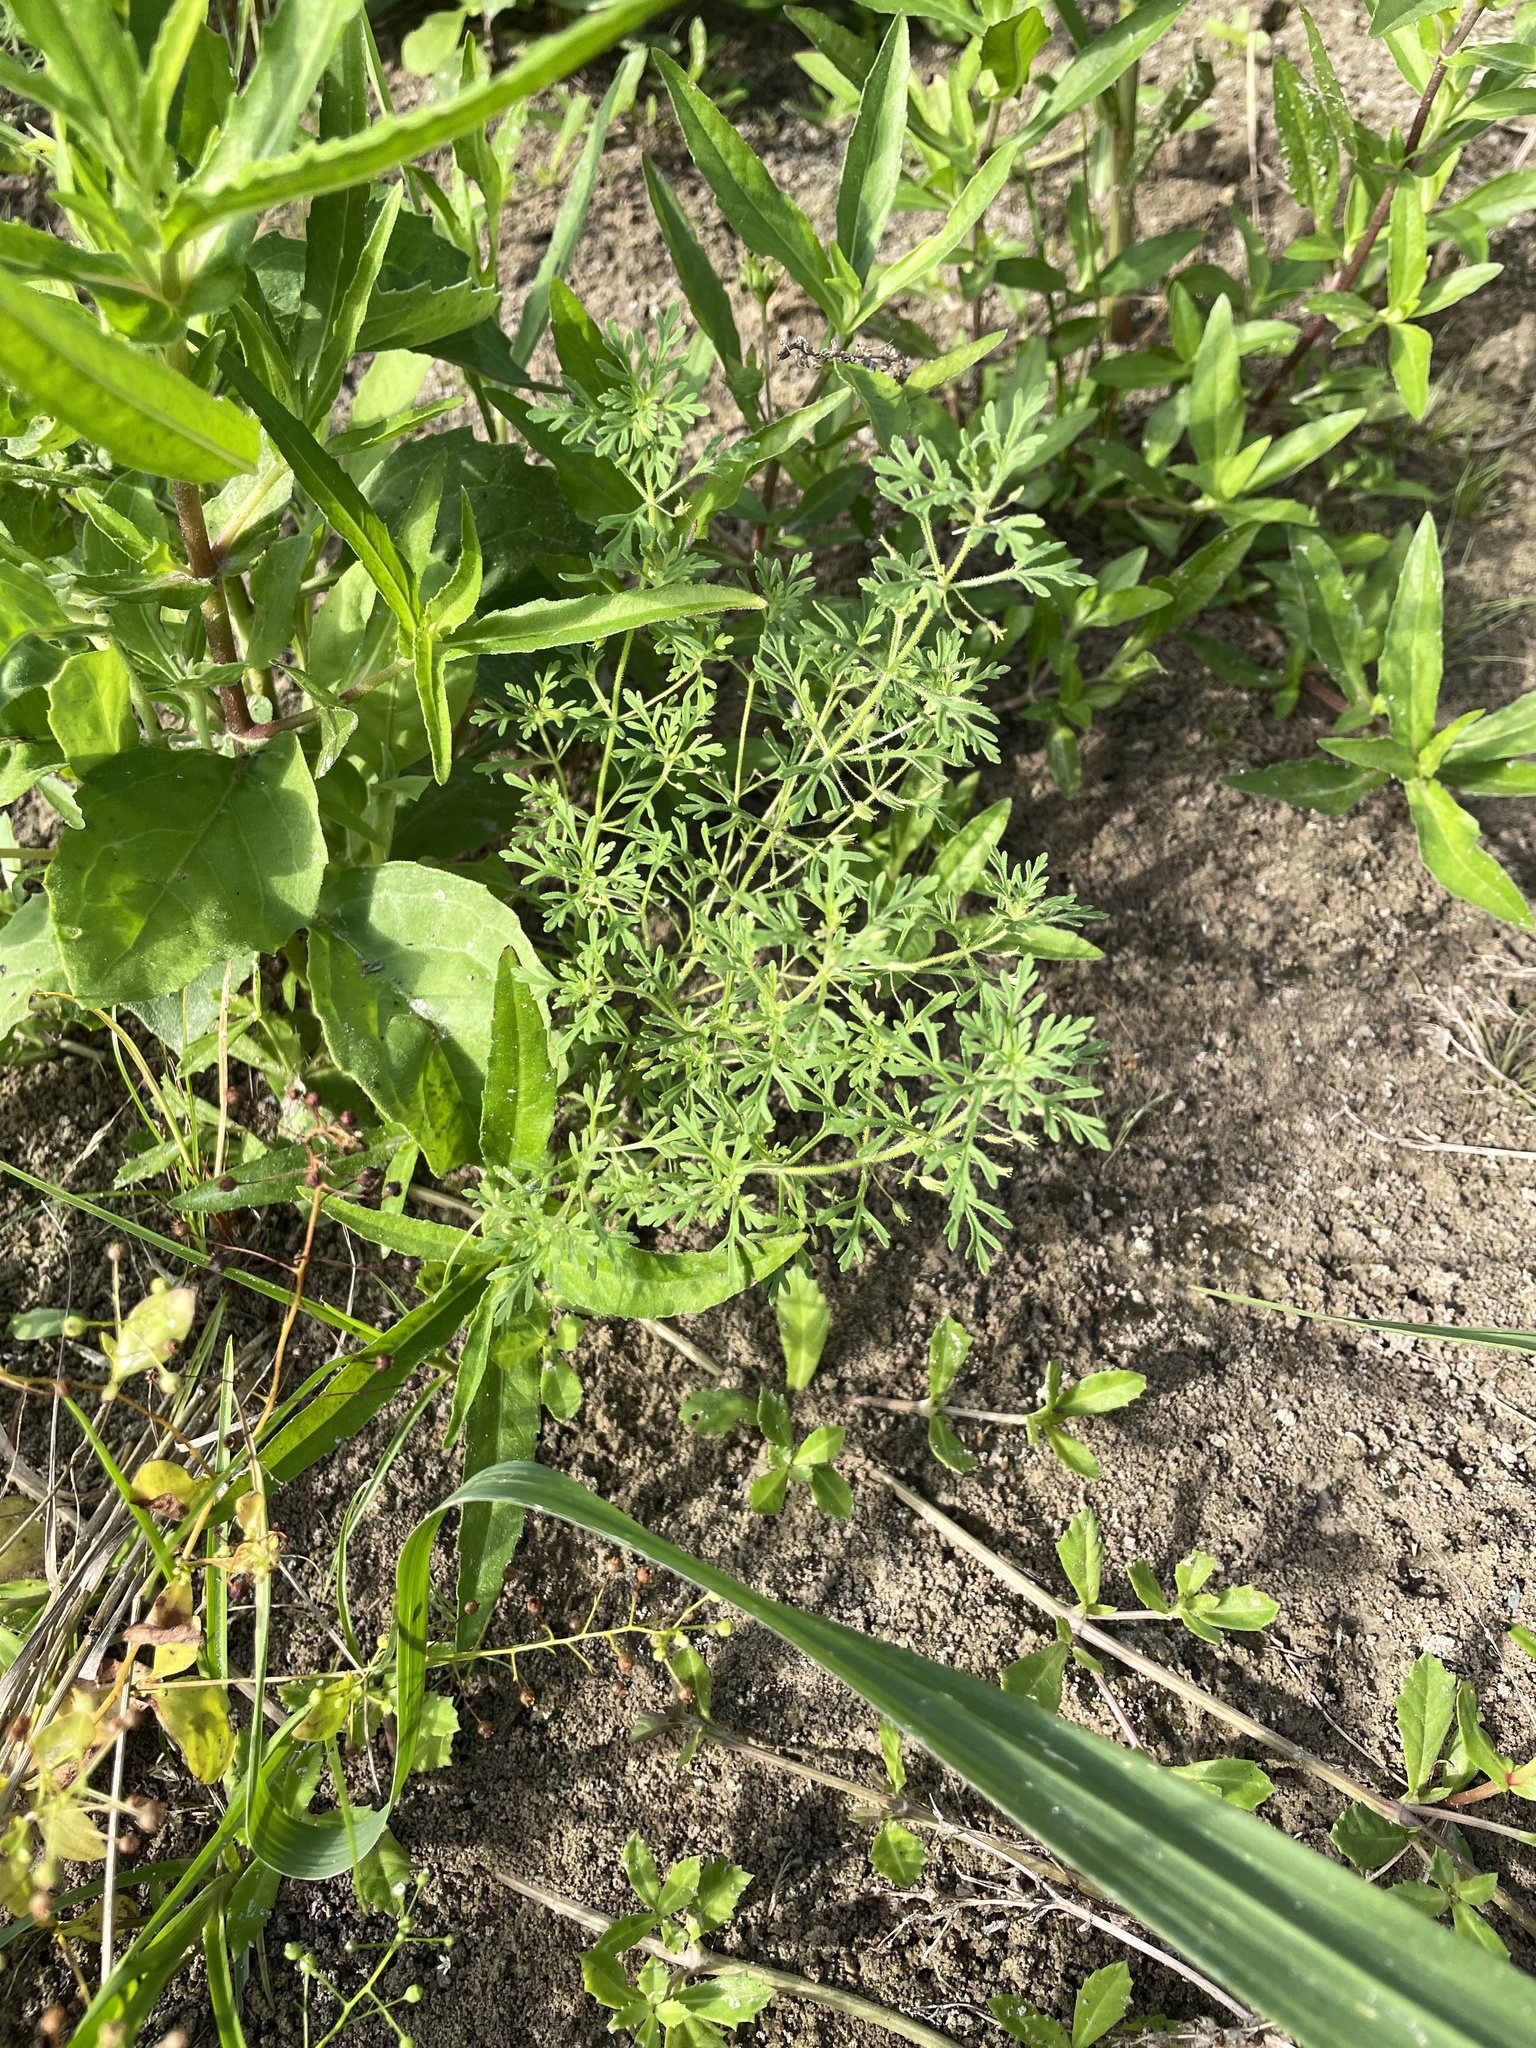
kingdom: Plantae
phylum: Tracheophyta
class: Magnoliopsida
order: Lamiales
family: Plantaginaceae
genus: Leucospora
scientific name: Leucospora multifida
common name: Narrow-leaf paleseed
